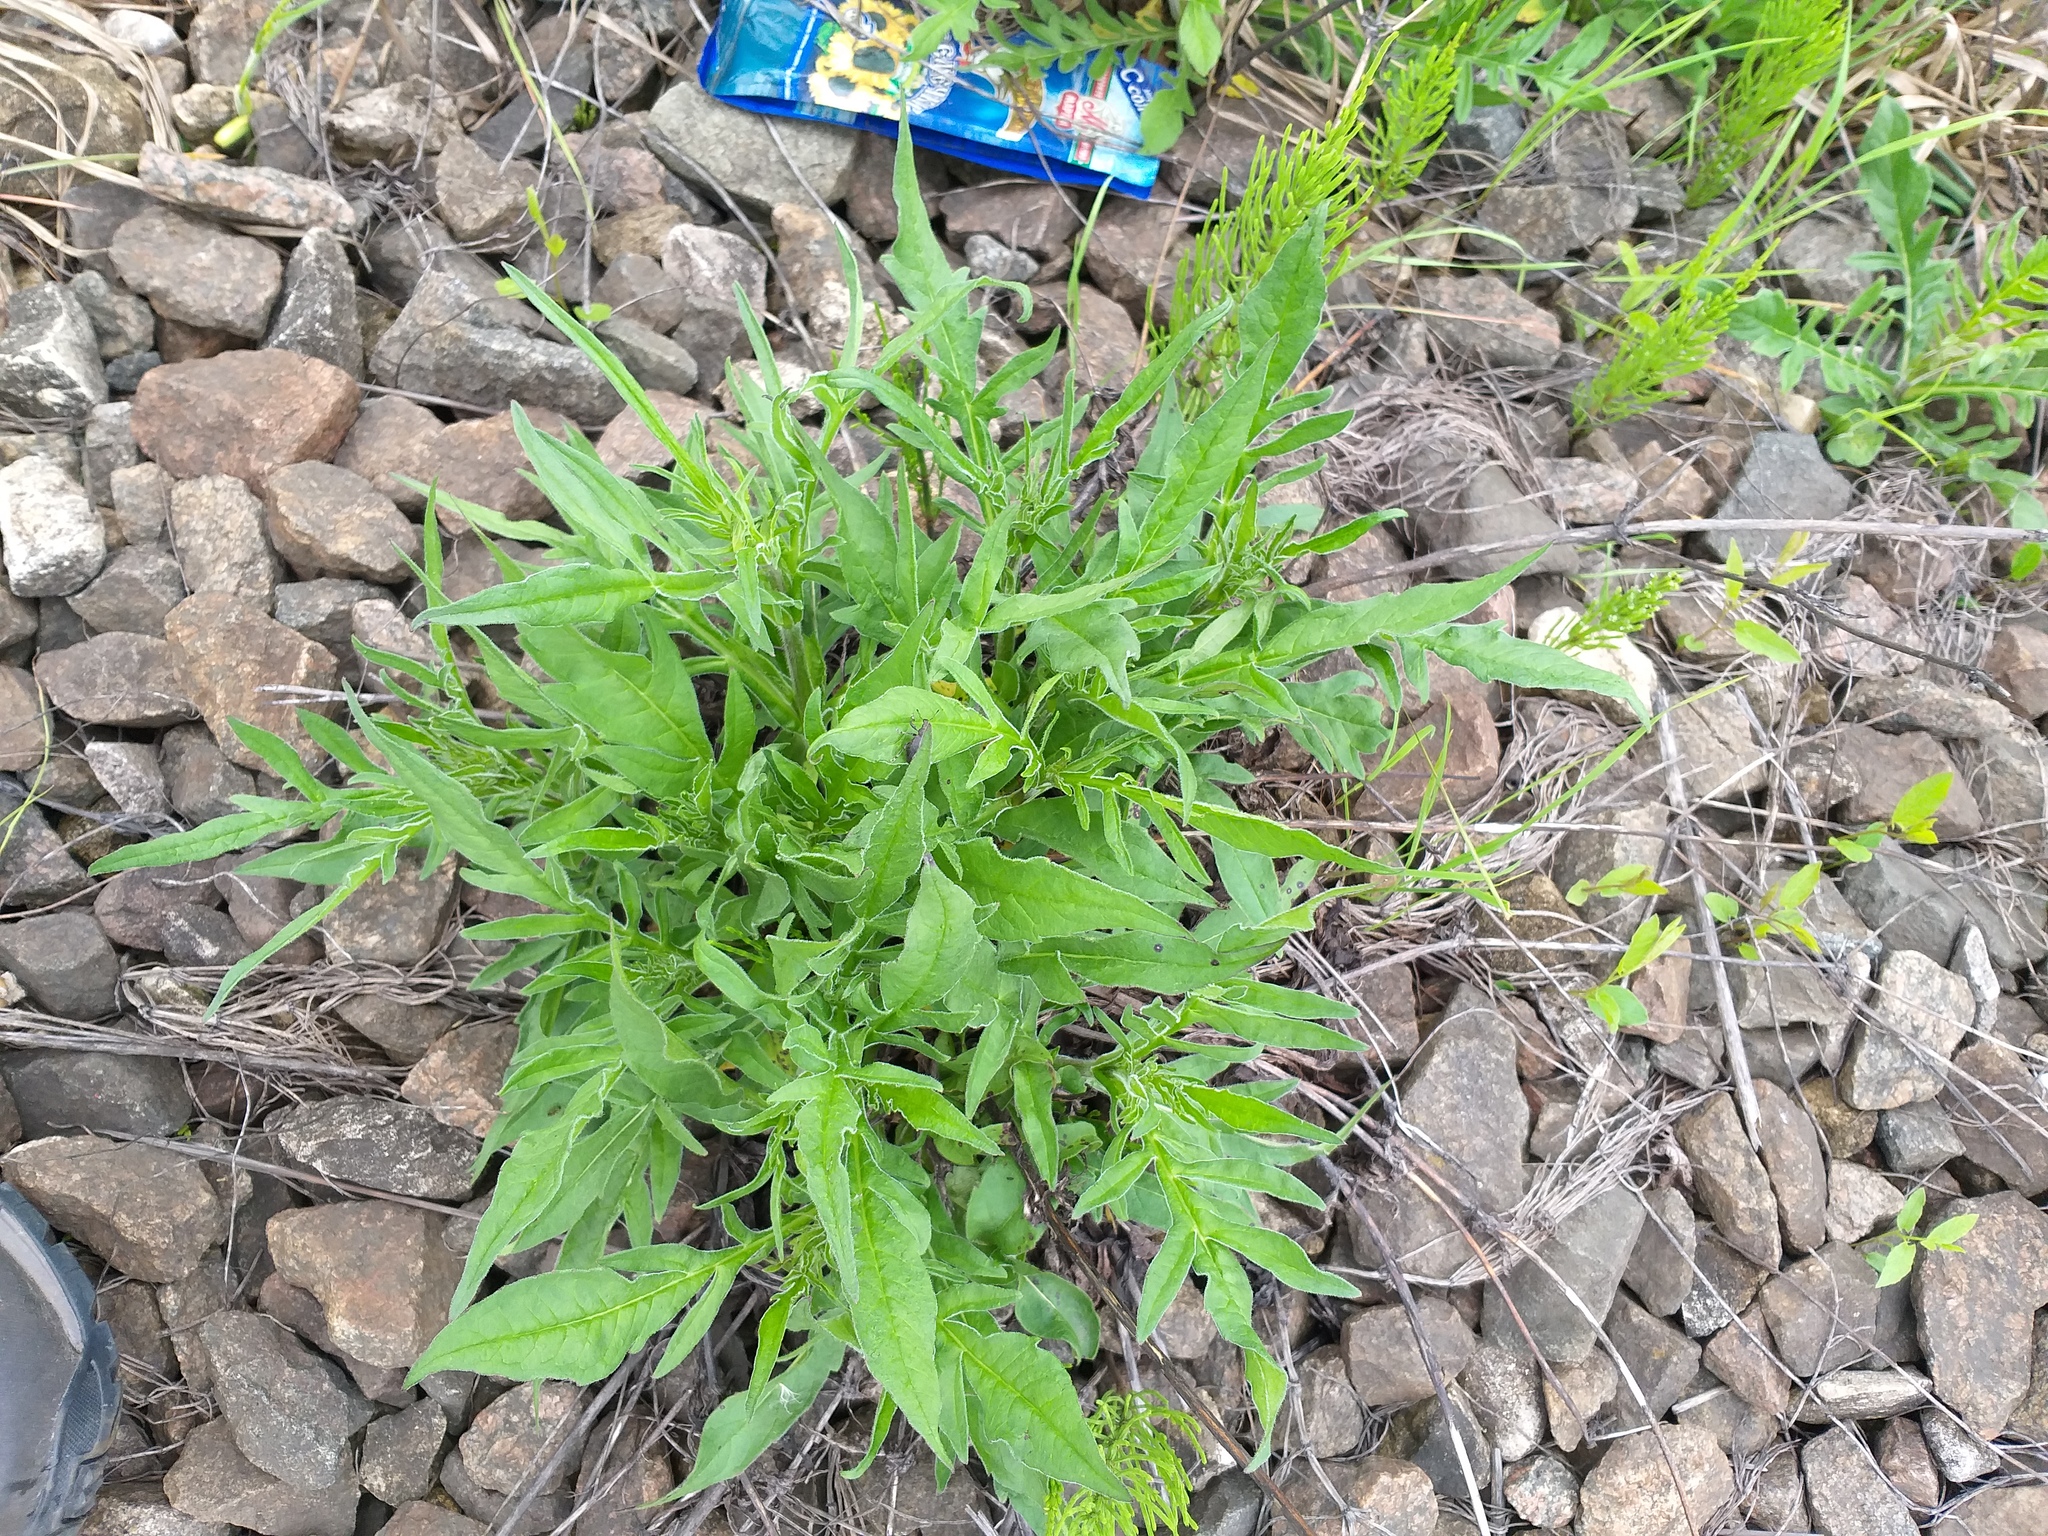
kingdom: Plantae
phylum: Tracheophyta
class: Magnoliopsida
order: Dipsacales
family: Caprifoliaceae
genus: Knautia
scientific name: Knautia arvensis
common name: Field scabiosa
